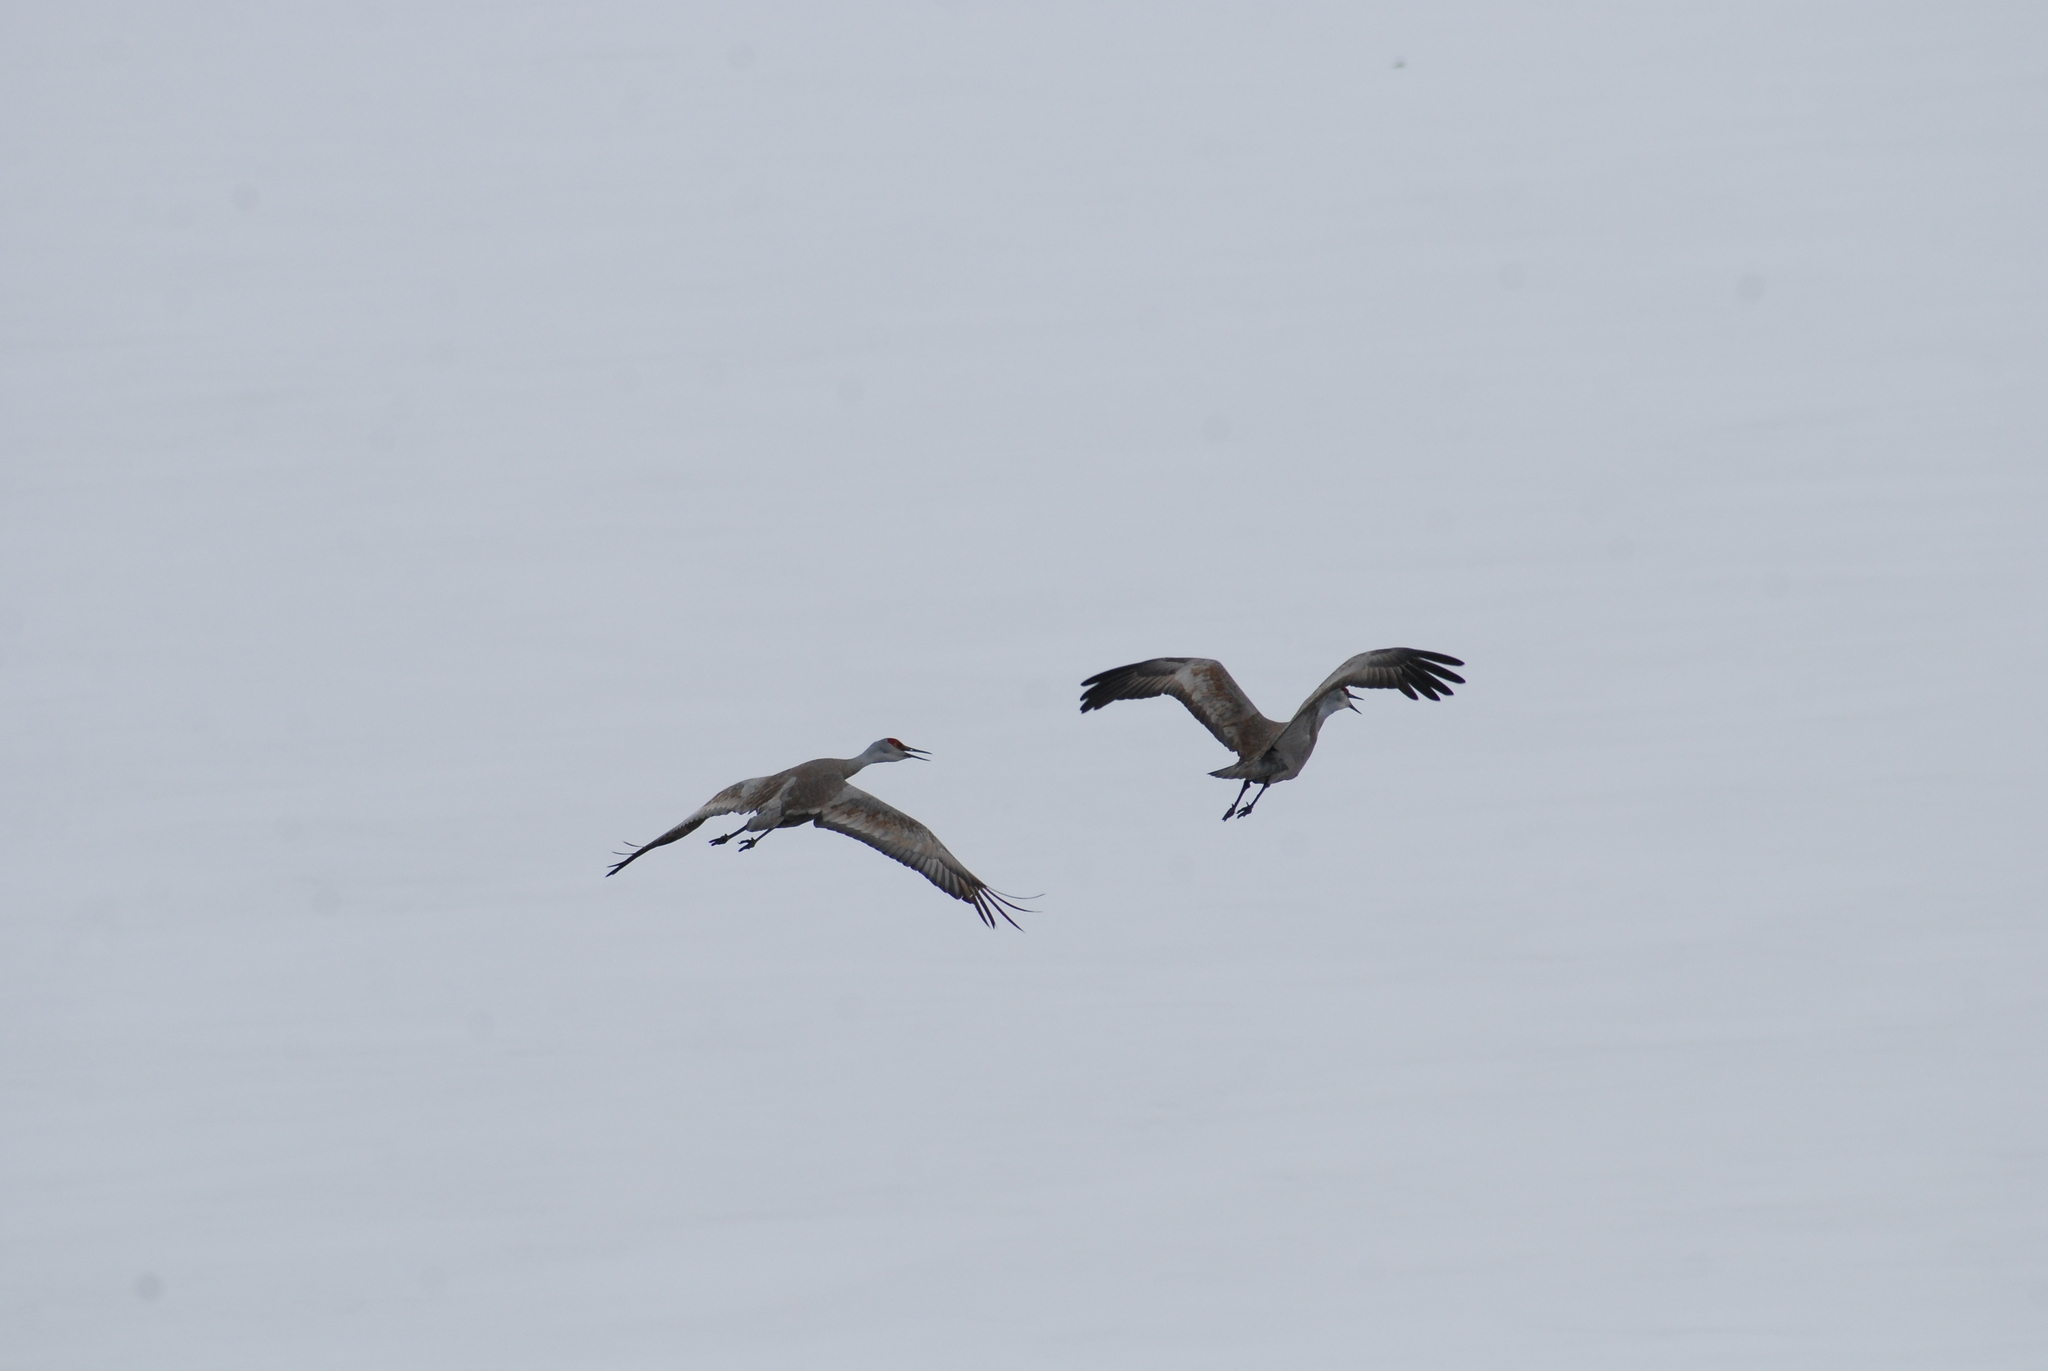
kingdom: Animalia
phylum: Chordata
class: Aves
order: Gruiformes
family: Gruidae
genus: Grus
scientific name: Grus canadensis
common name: Sandhill crane
